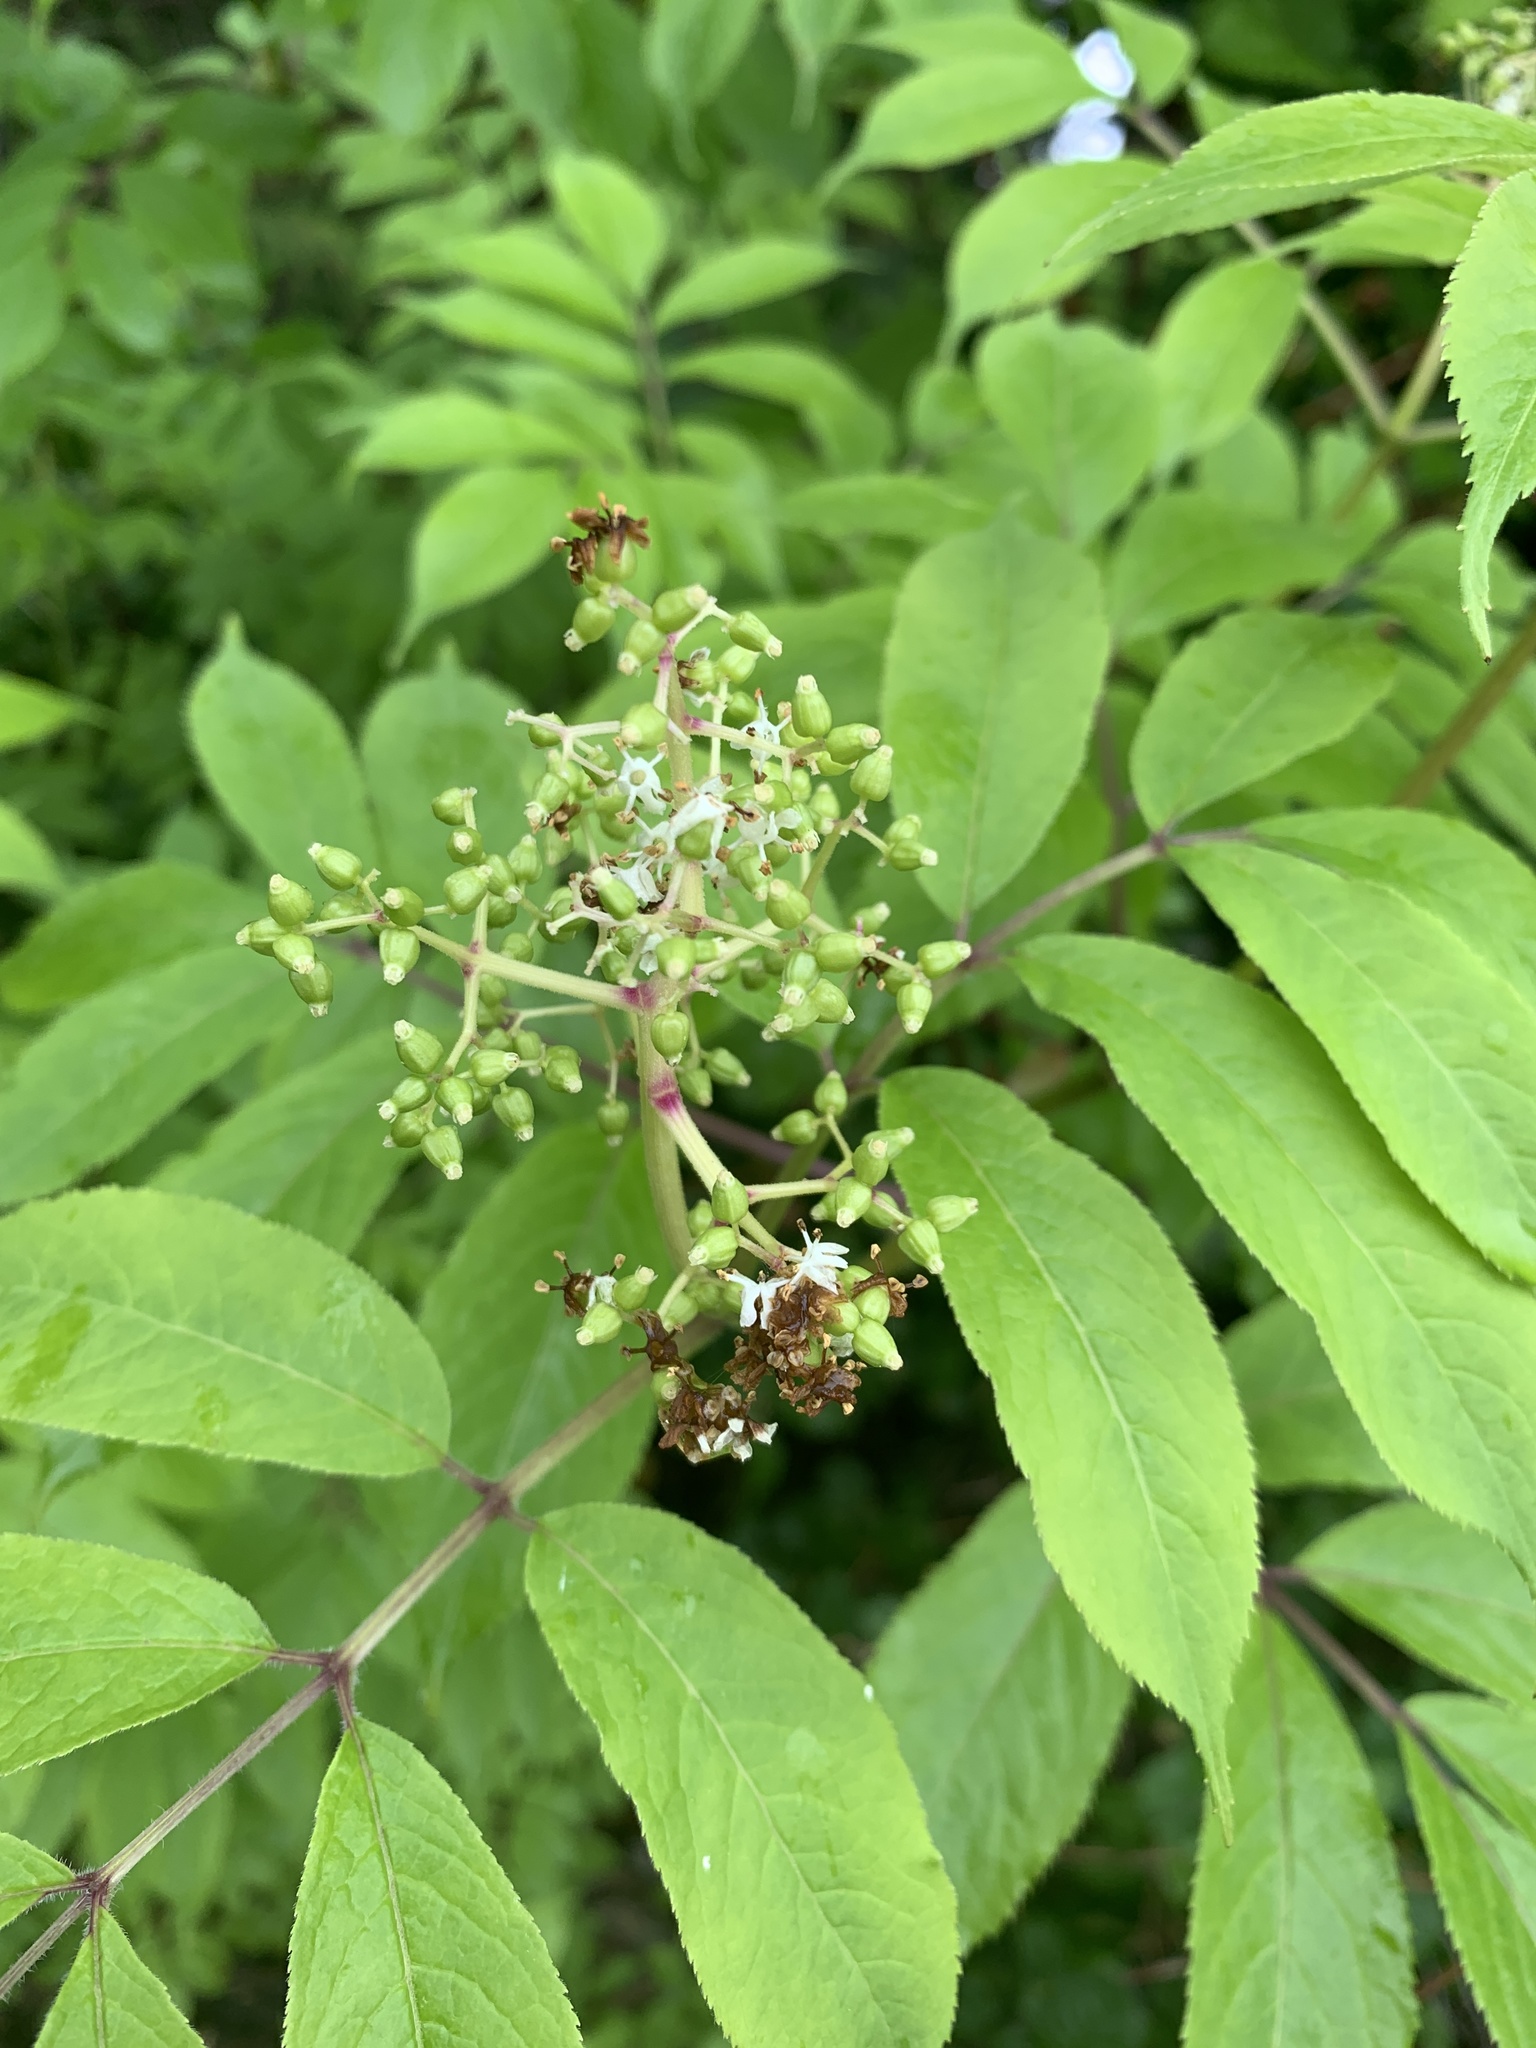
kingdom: Plantae
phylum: Tracheophyta
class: Magnoliopsida
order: Dipsacales
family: Viburnaceae
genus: Sambucus
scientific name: Sambucus racemosa
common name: Red-berried elder
